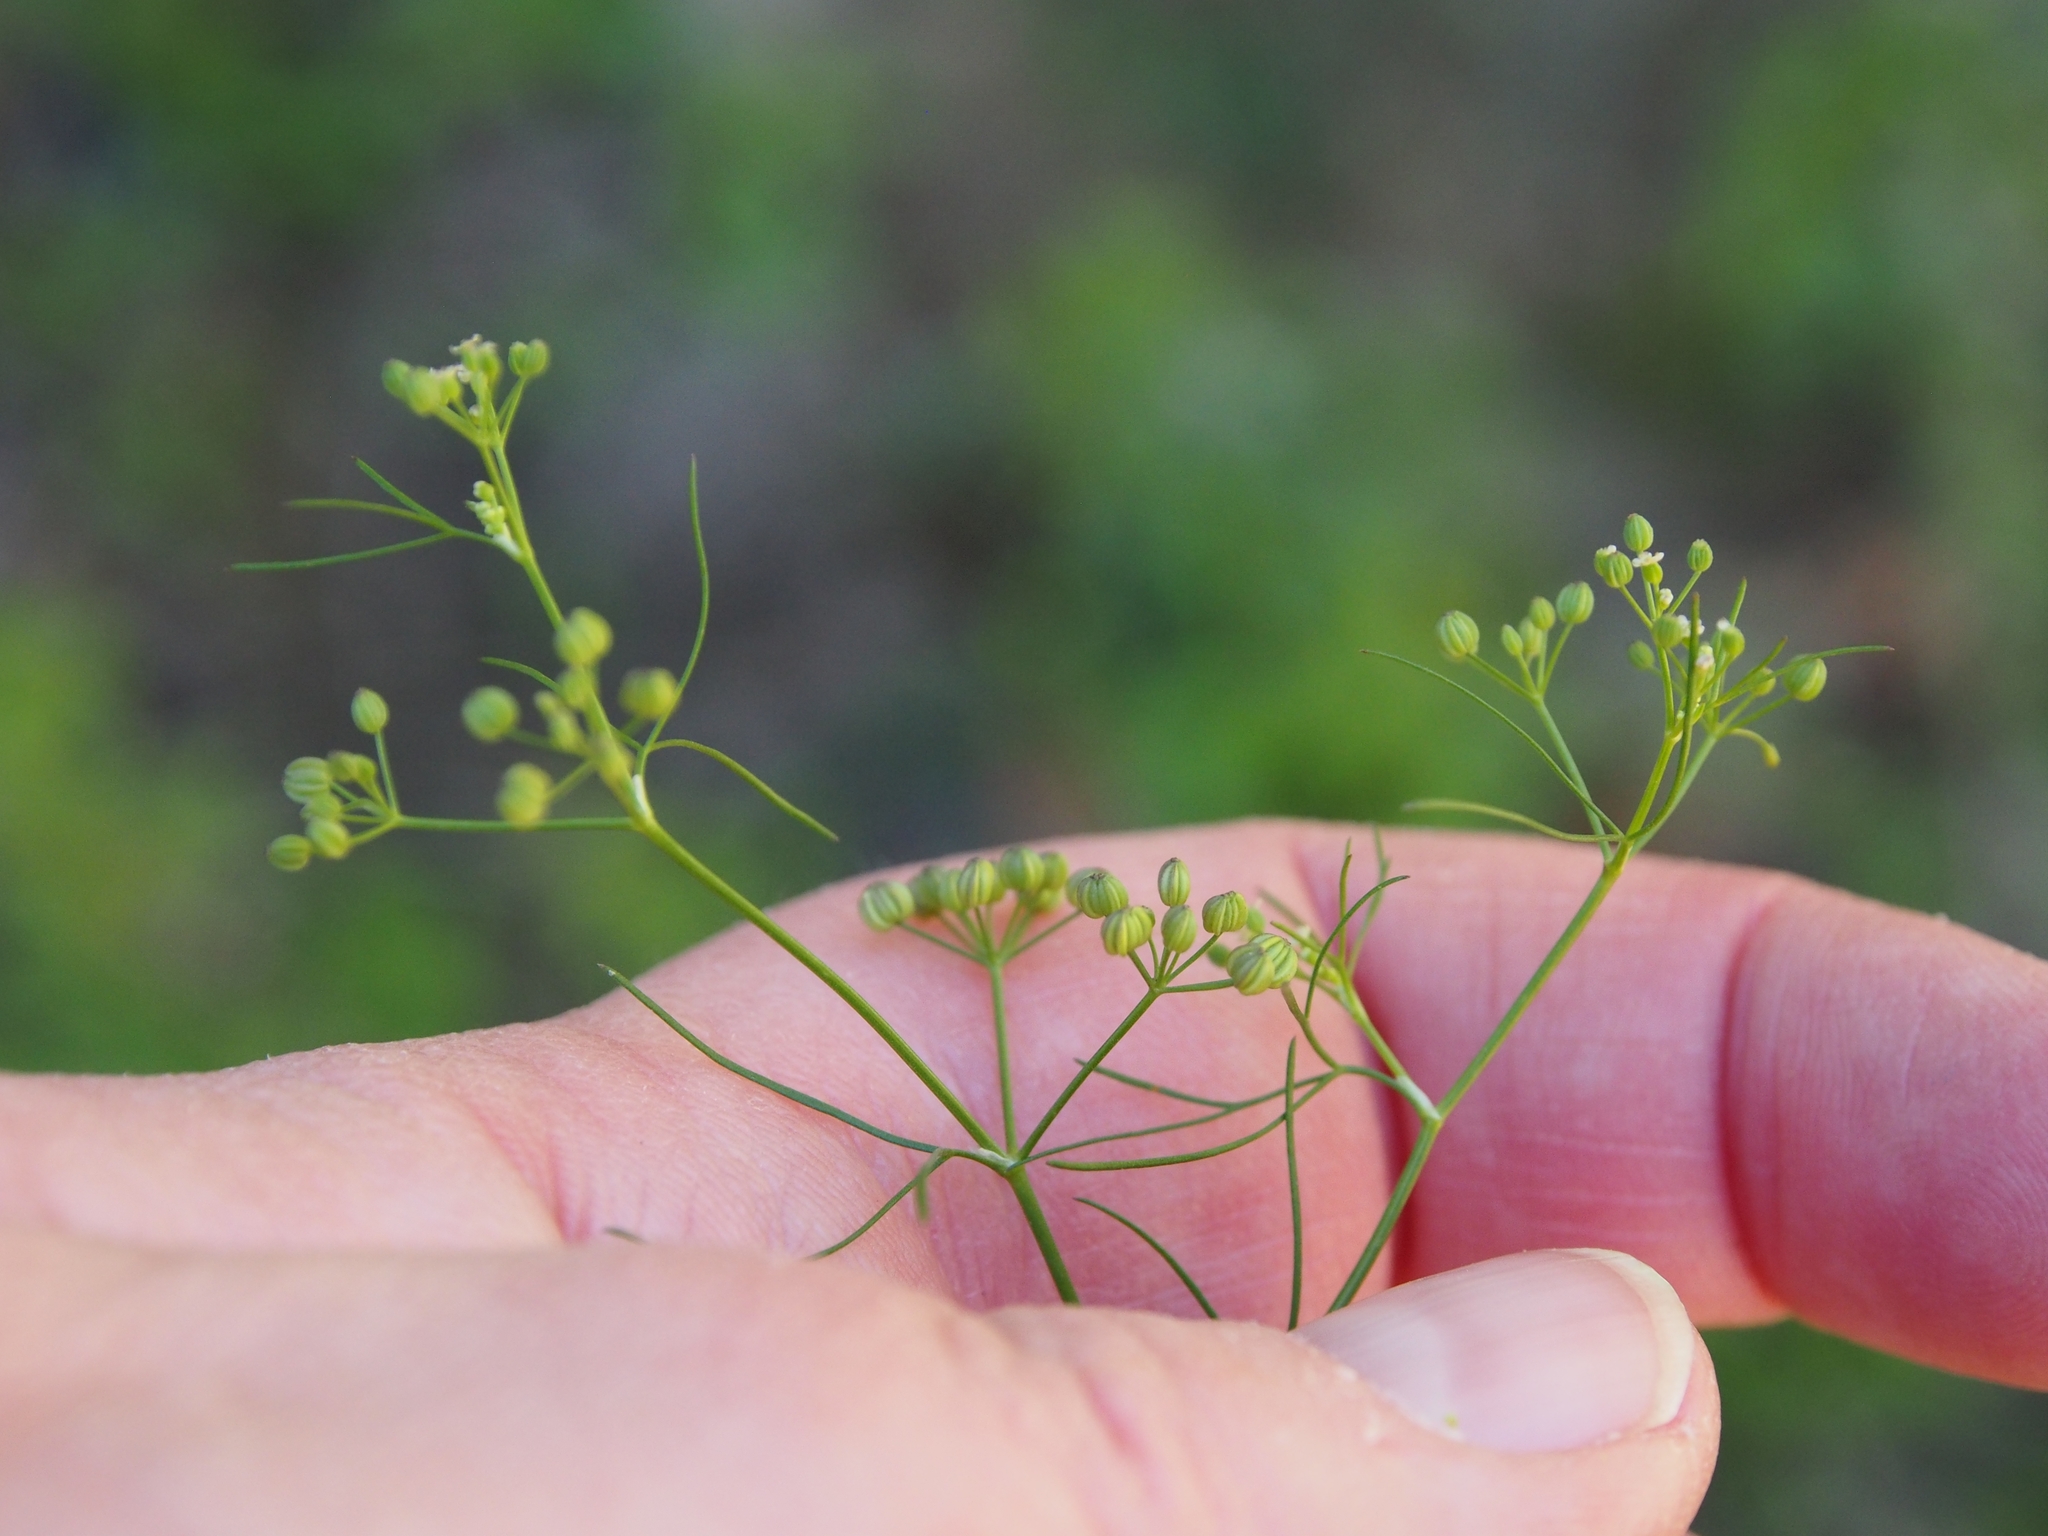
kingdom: Plantae
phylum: Tracheophyta
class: Magnoliopsida
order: Apiales
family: Apiaceae
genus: Cyclospermum
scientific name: Cyclospermum leptophyllum
